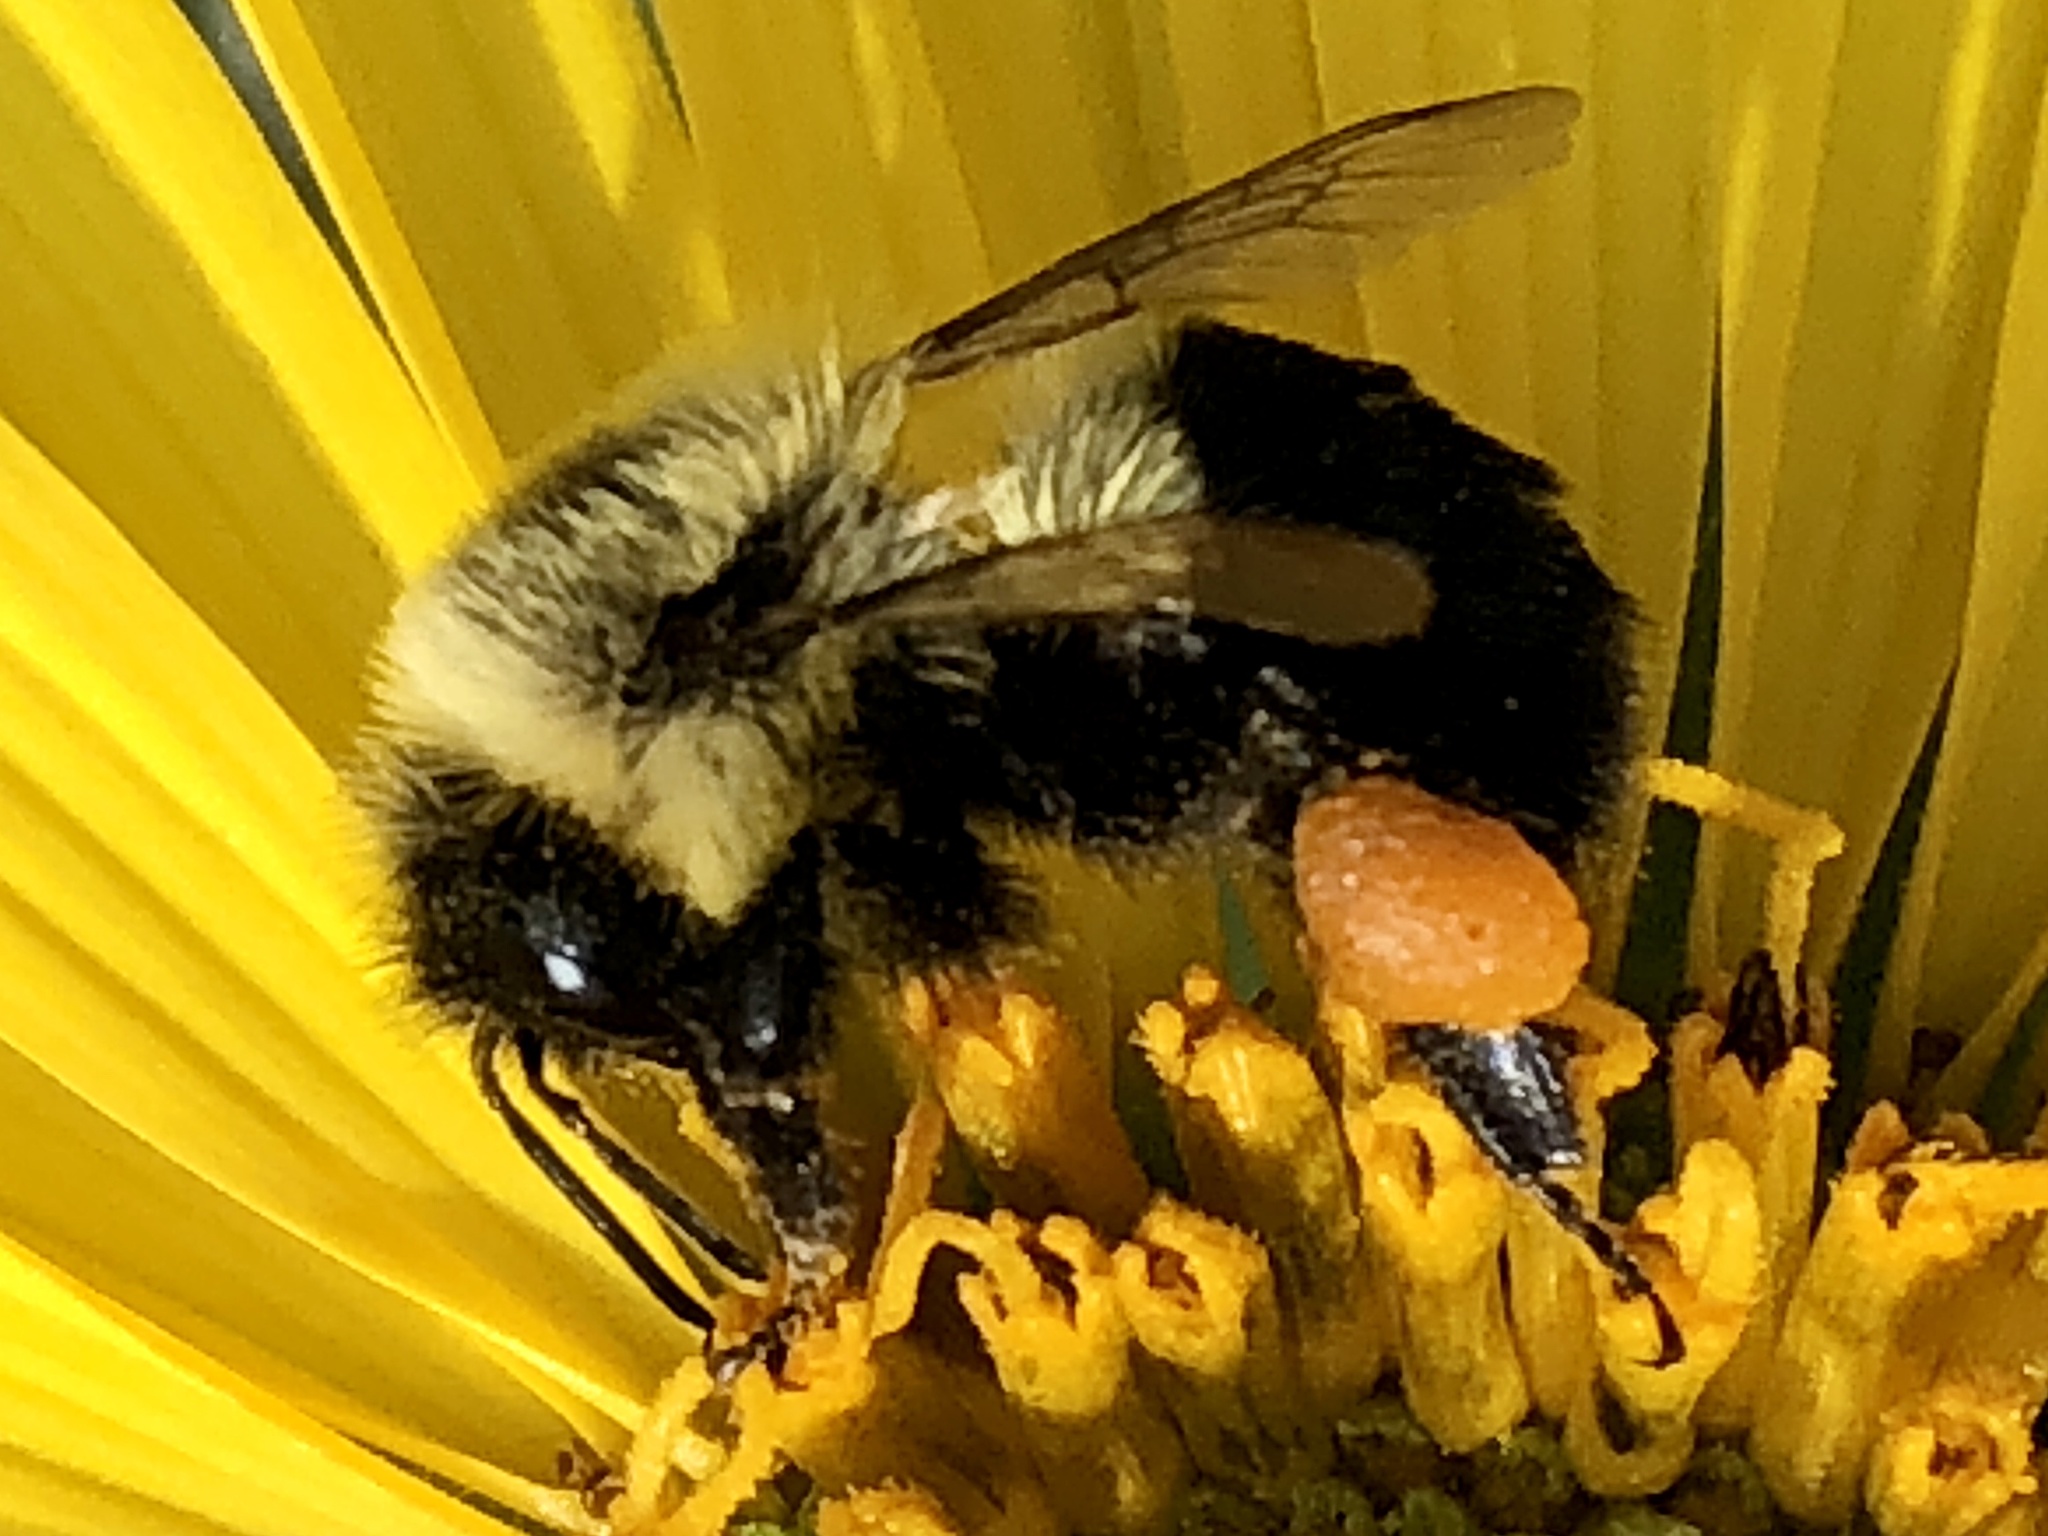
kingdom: Animalia
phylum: Arthropoda
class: Insecta
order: Hymenoptera
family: Apidae
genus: Bombus
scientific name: Bombus impatiens
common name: Common eastern bumble bee
